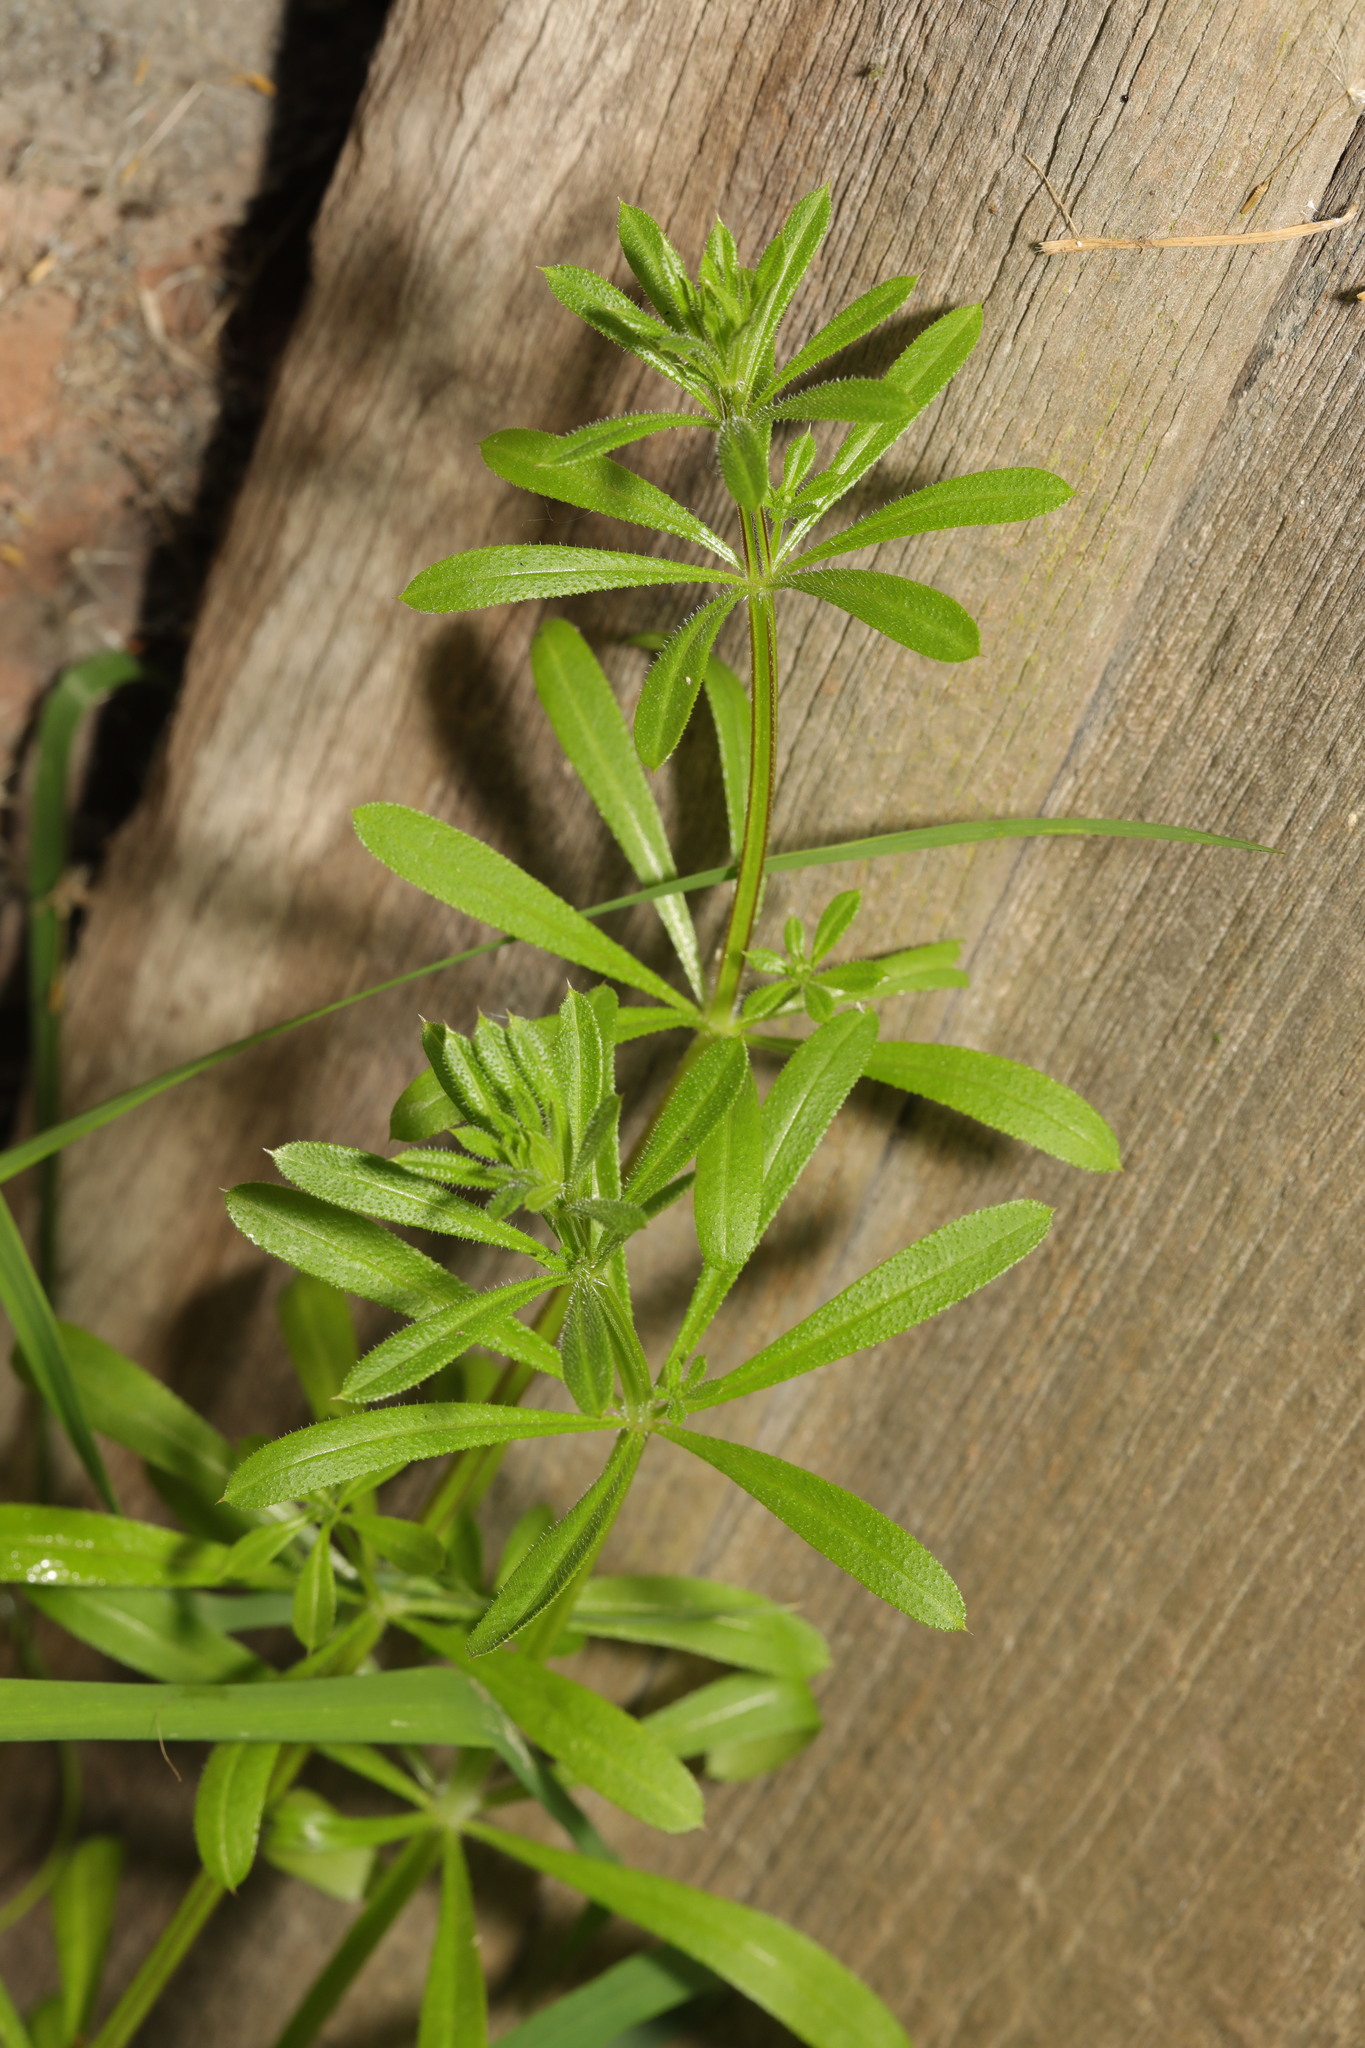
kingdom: Plantae
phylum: Tracheophyta
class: Magnoliopsida
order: Gentianales
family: Rubiaceae
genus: Galium
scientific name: Galium aparine
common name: Cleavers
